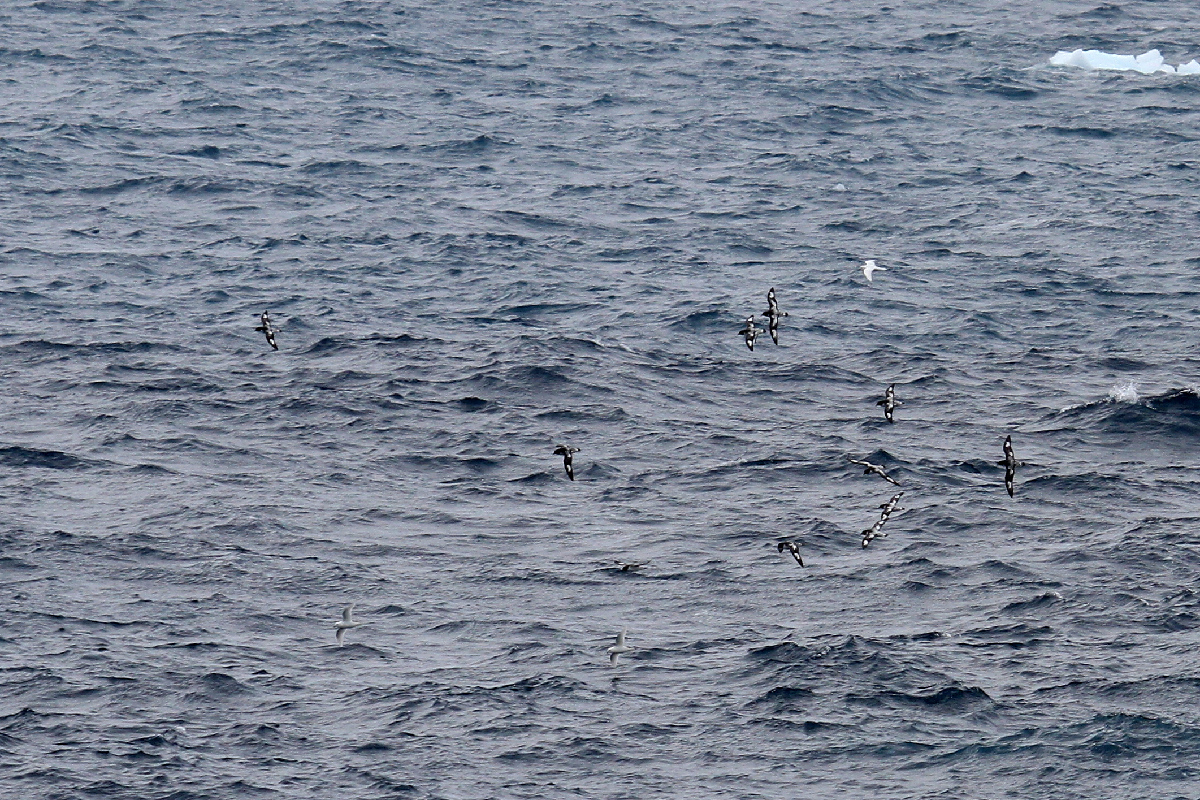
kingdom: Animalia
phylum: Chordata
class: Aves
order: Procellariiformes
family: Procellariidae
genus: Daption
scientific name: Daption capense
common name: Cape petrel
